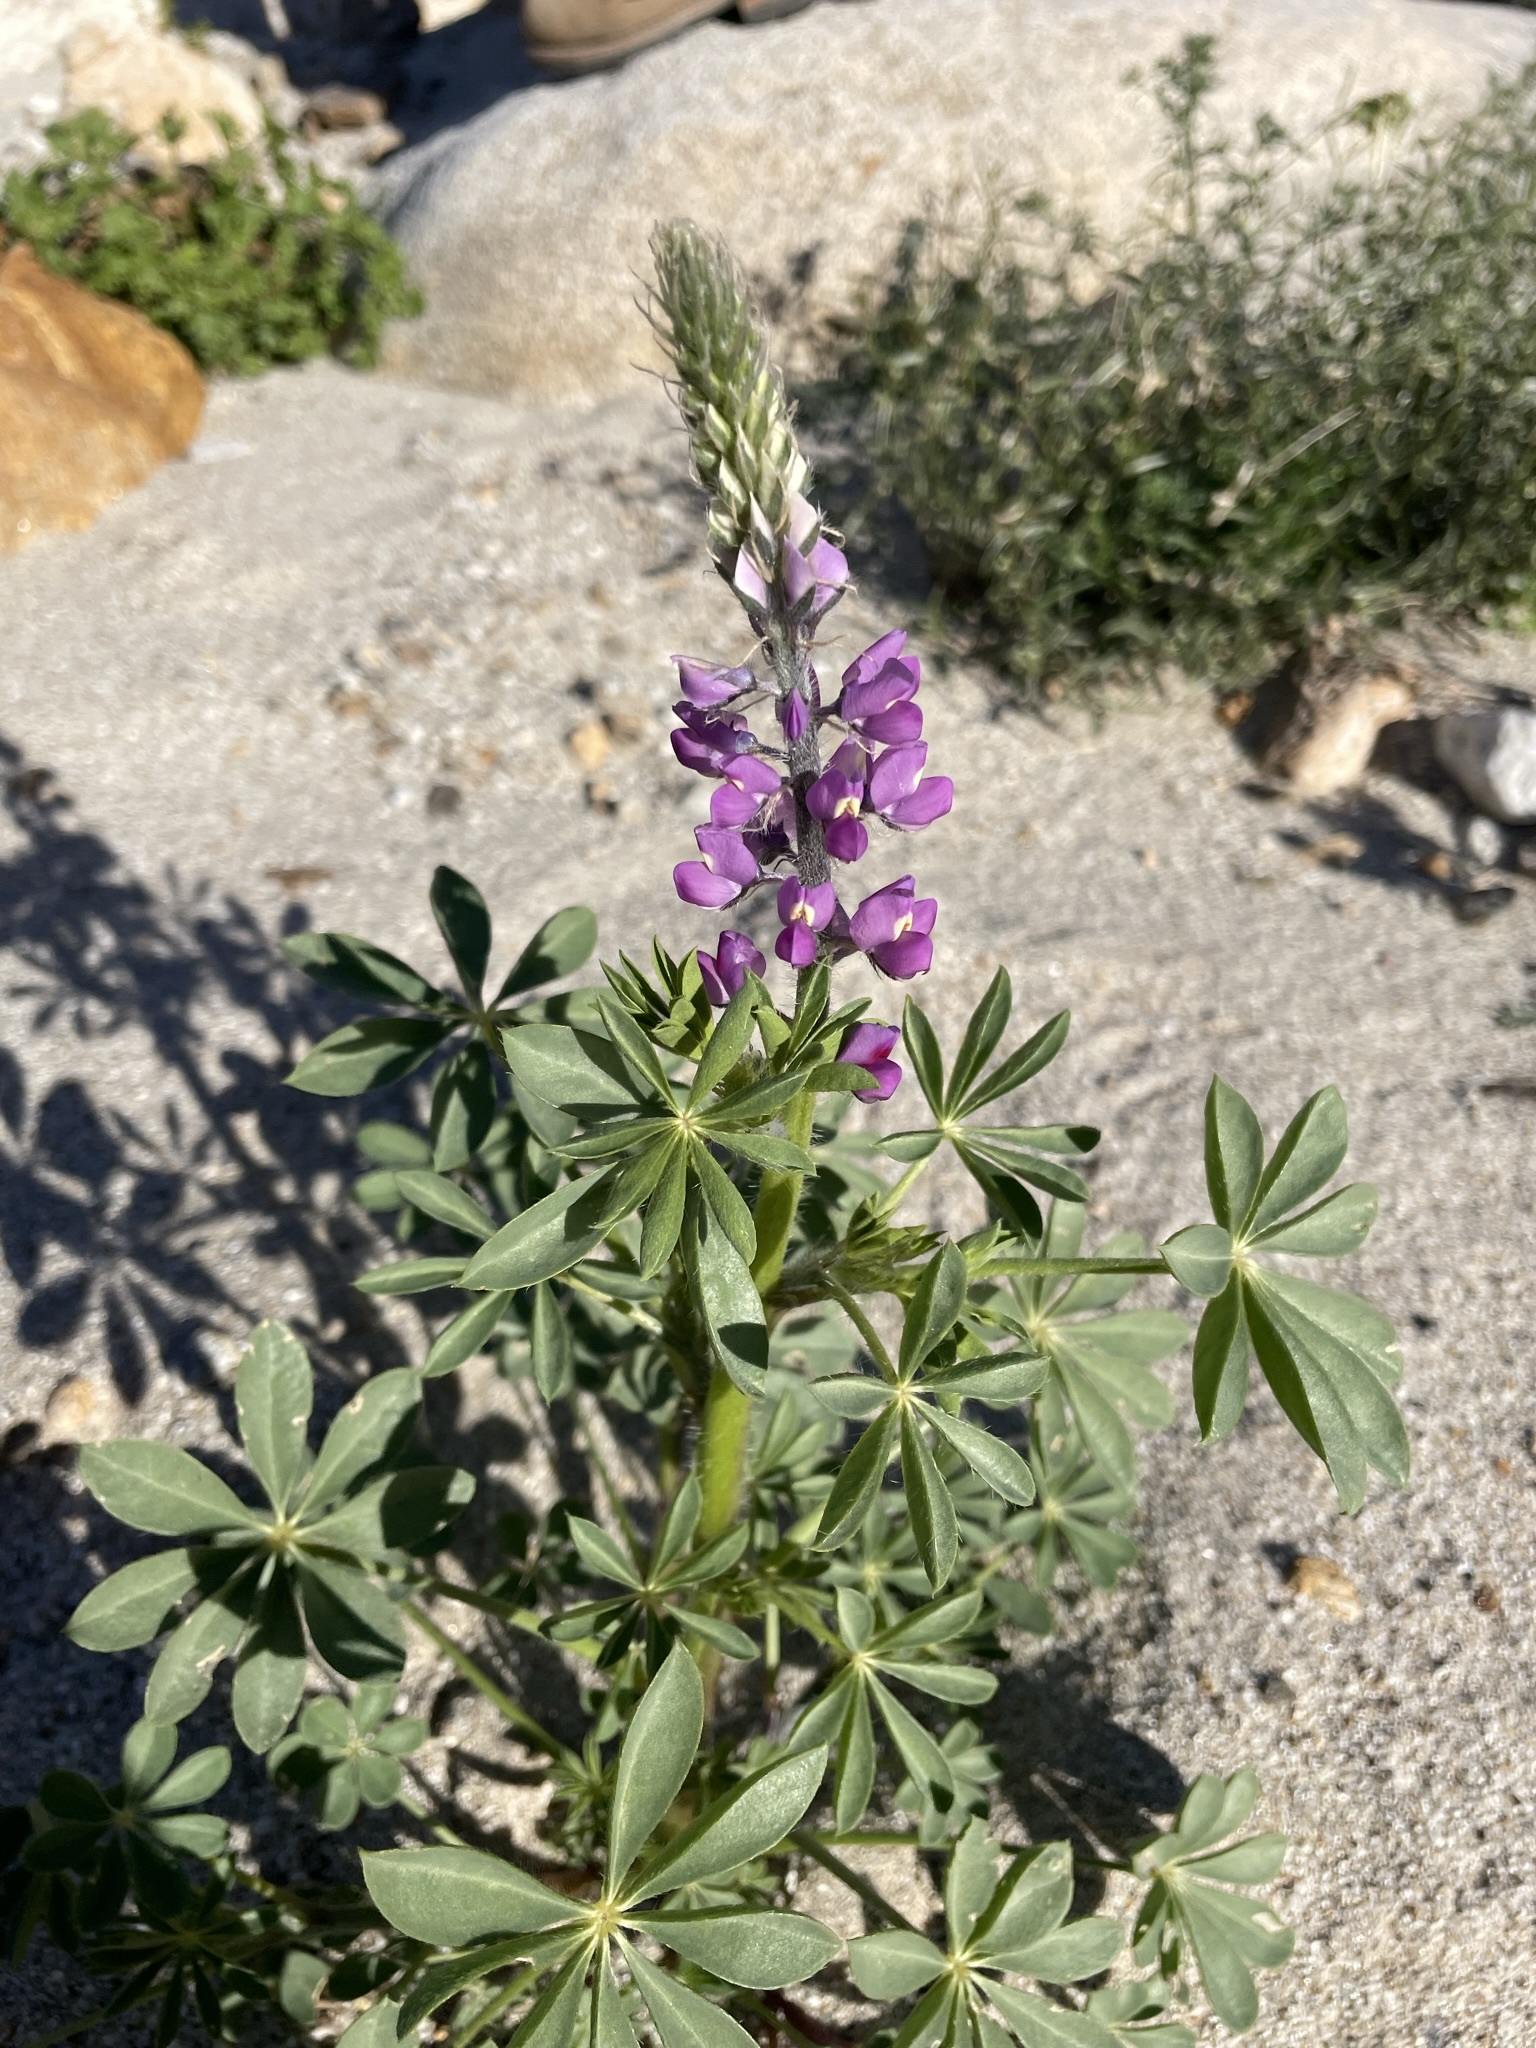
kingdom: Plantae
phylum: Tracheophyta
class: Magnoliopsida
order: Fabales
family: Fabaceae
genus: Lupinus
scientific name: Lupinus arizonicus
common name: Arizona lupine
